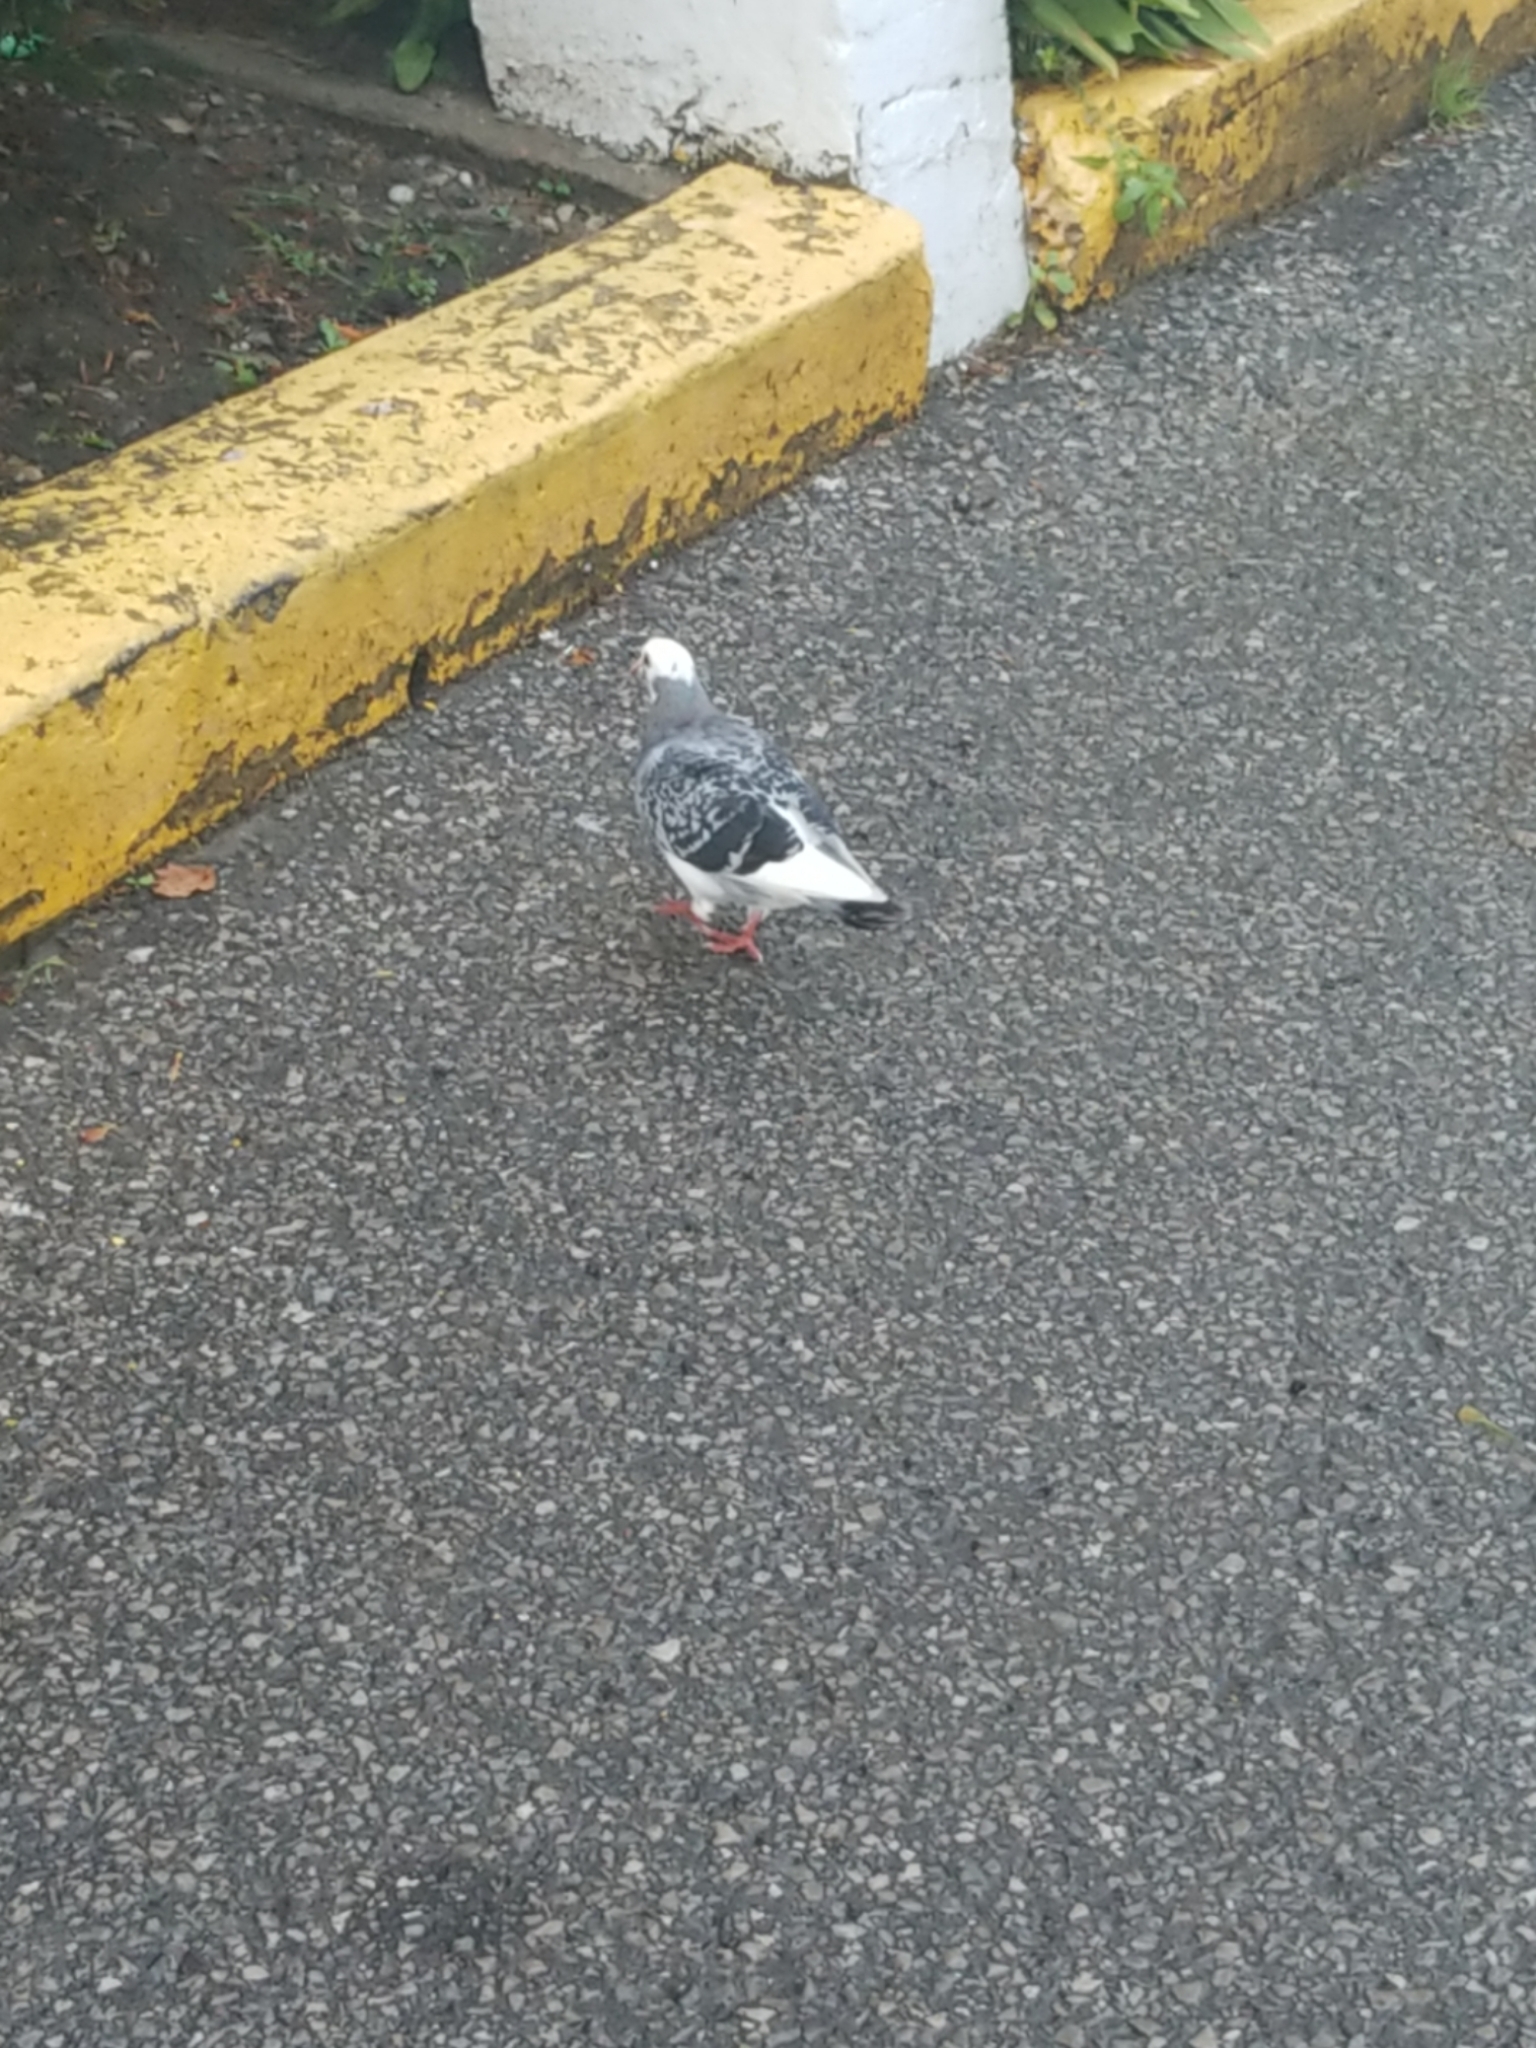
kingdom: Animalia
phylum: Chordata
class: Aves
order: Columbiformes
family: Columbidae
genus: Columba
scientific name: Columba livia
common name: Rock pigeon
